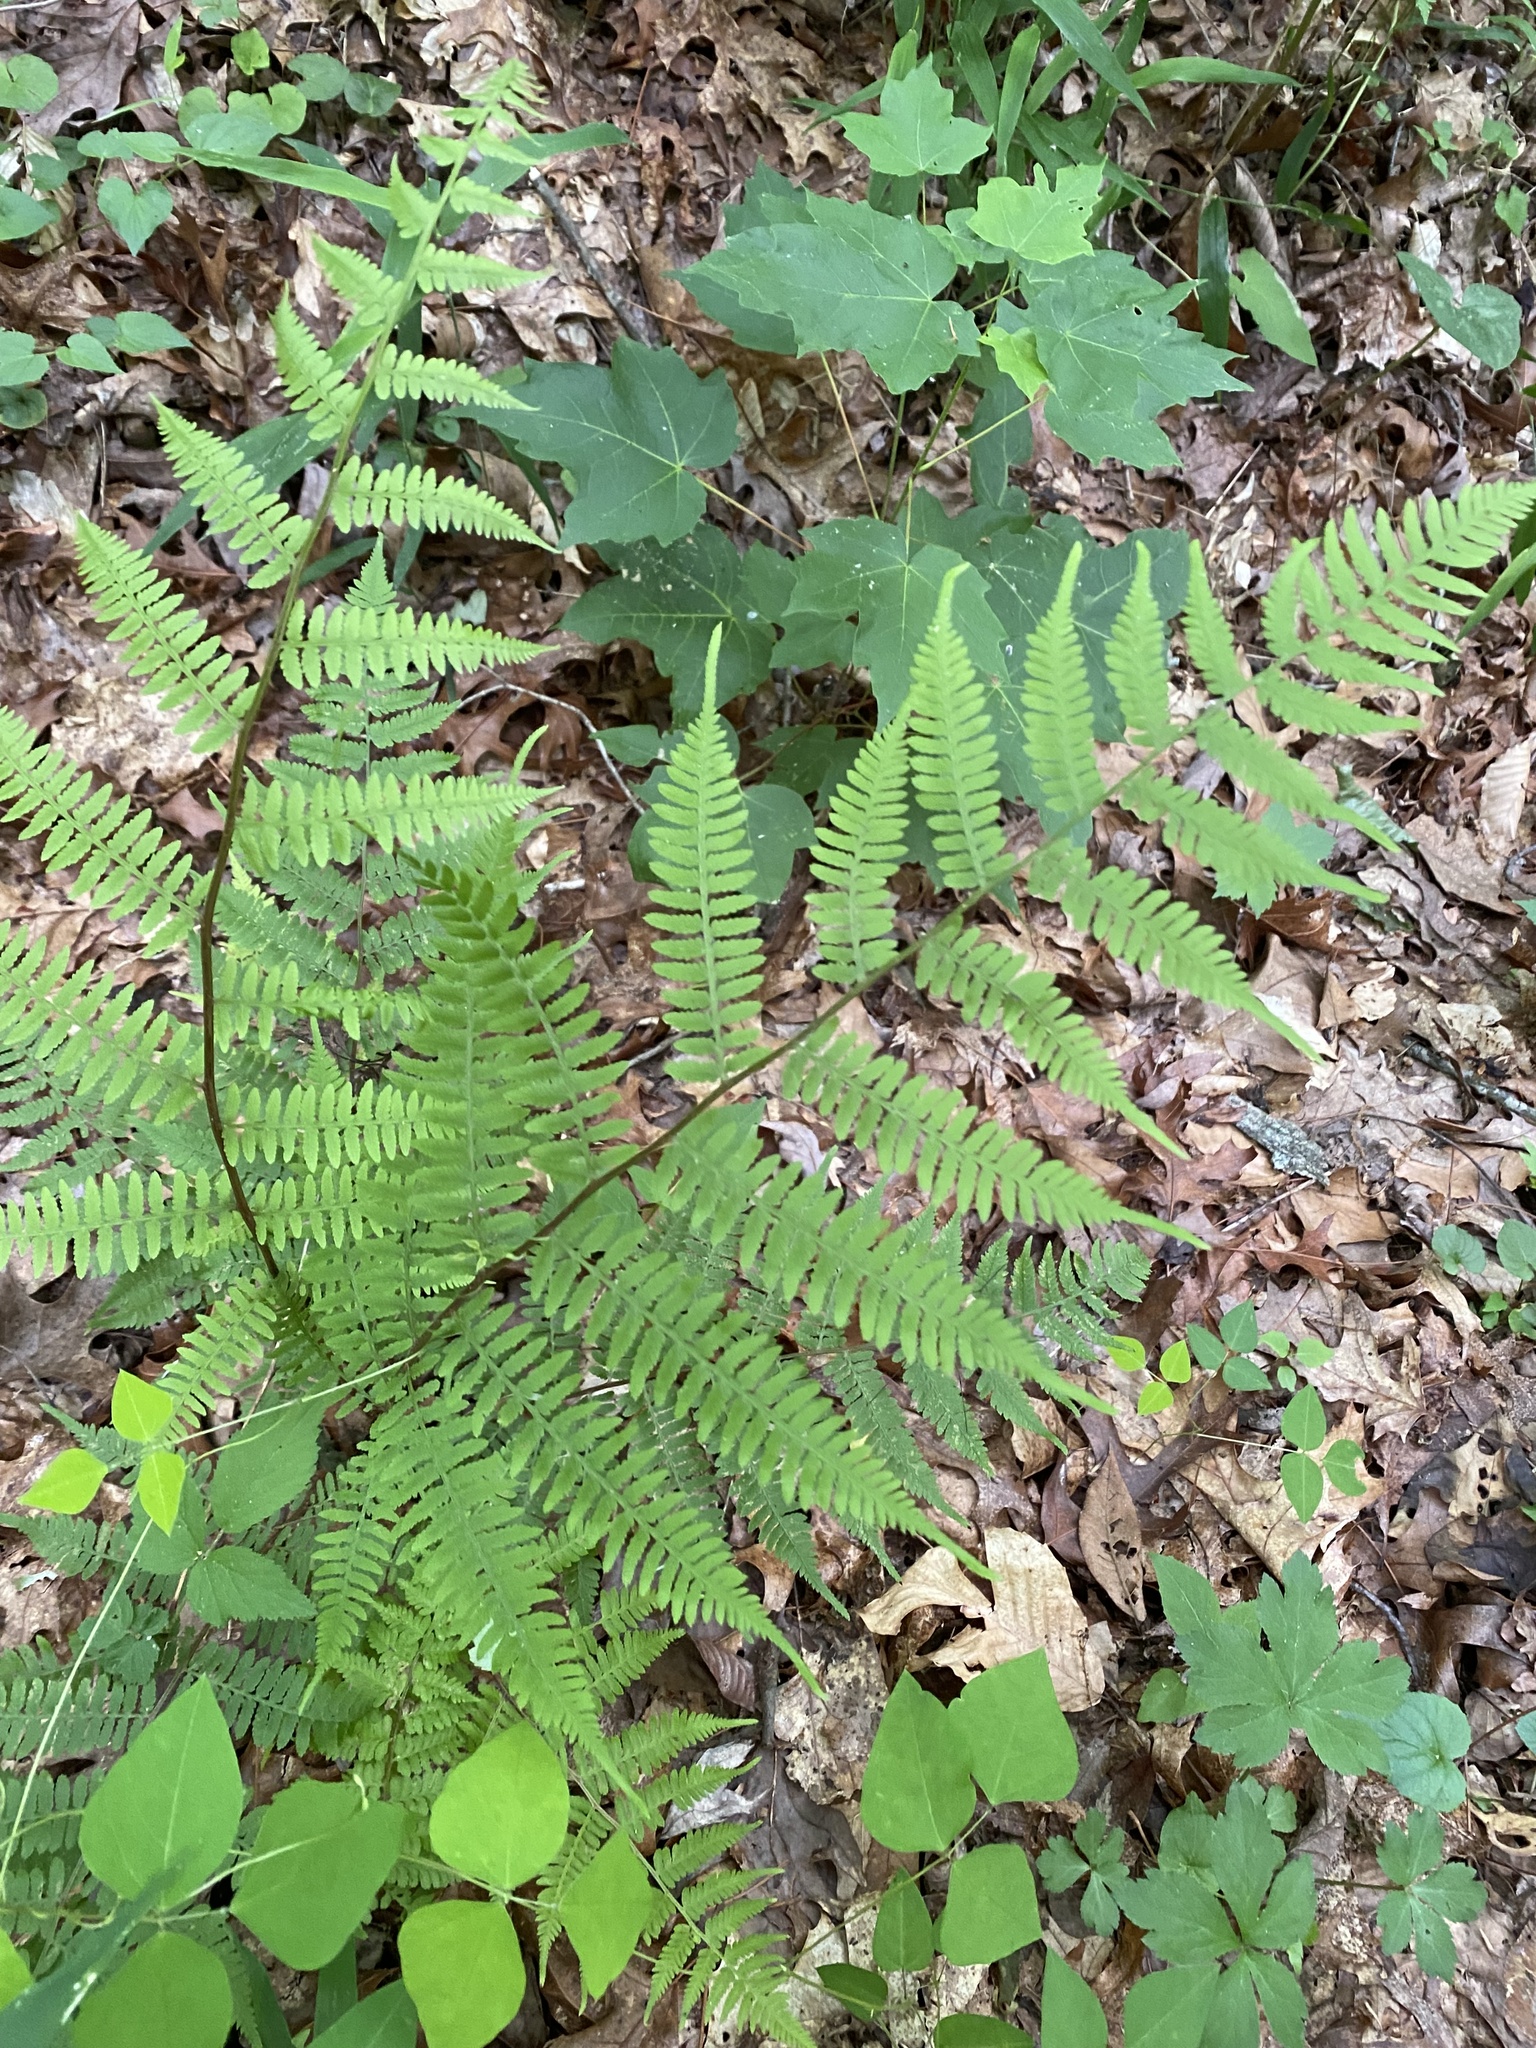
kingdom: Plantae
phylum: Tracheophyta
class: Polypodiopsida
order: Polypodiales
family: Athyriaceae
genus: Athyrium
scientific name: Athyrium asplenioides
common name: Southern lady fern
